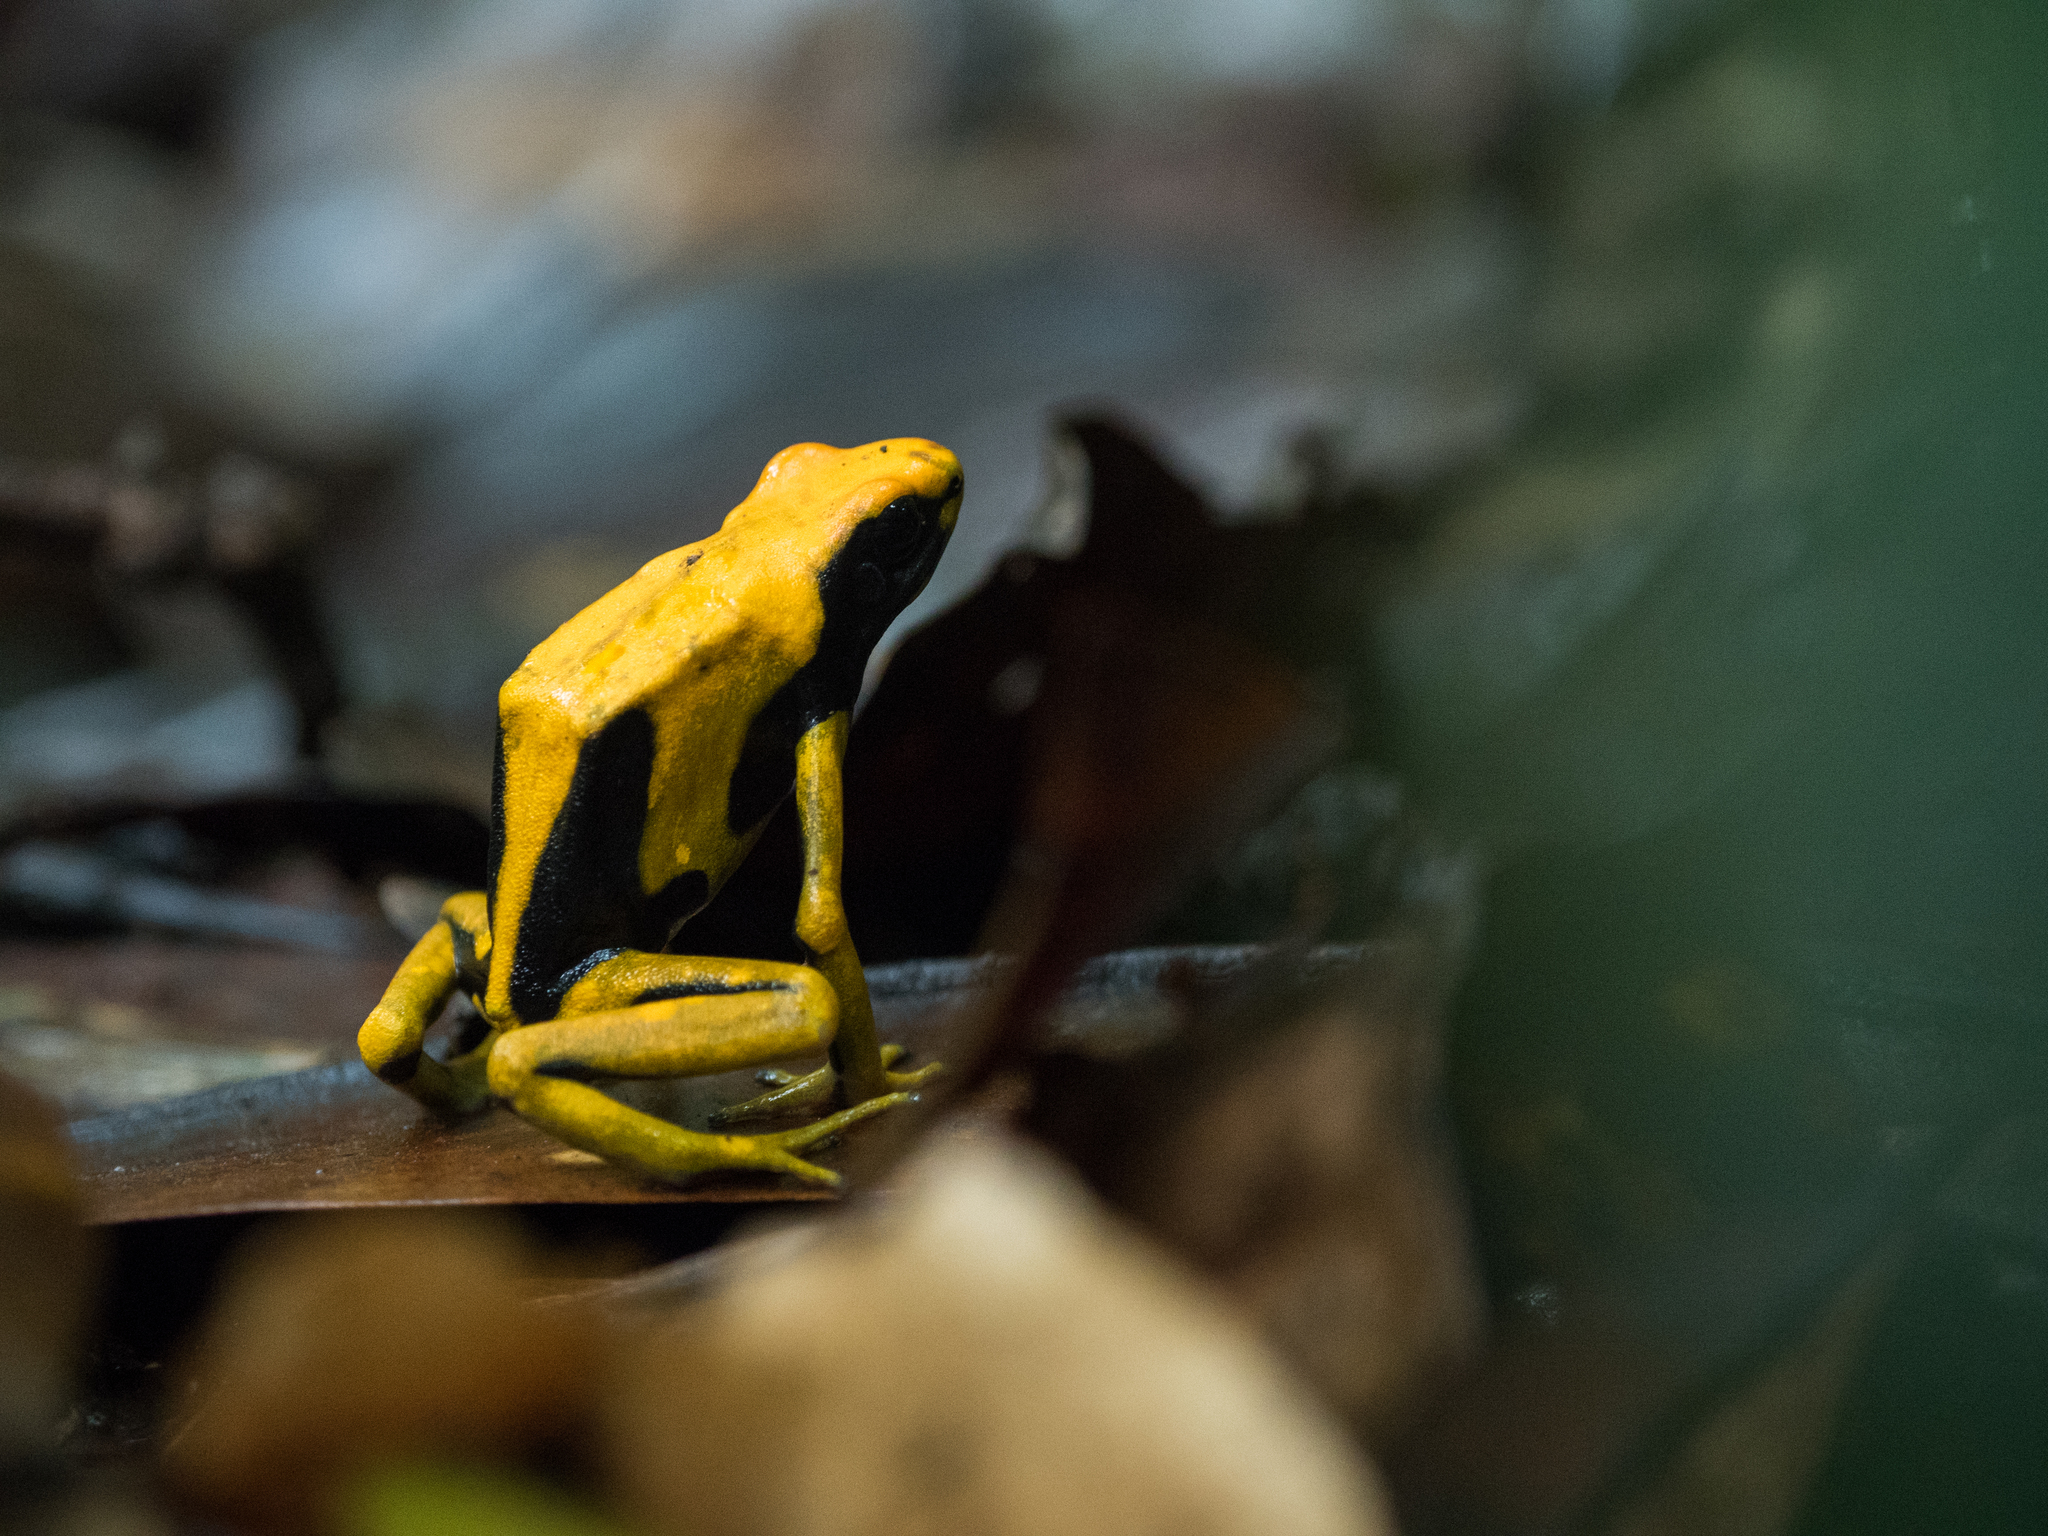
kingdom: Animalia
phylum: Chordata
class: Amphibia
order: Anura
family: Dendrobatidae
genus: Dendrobates
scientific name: Dendrobates tinctorius
